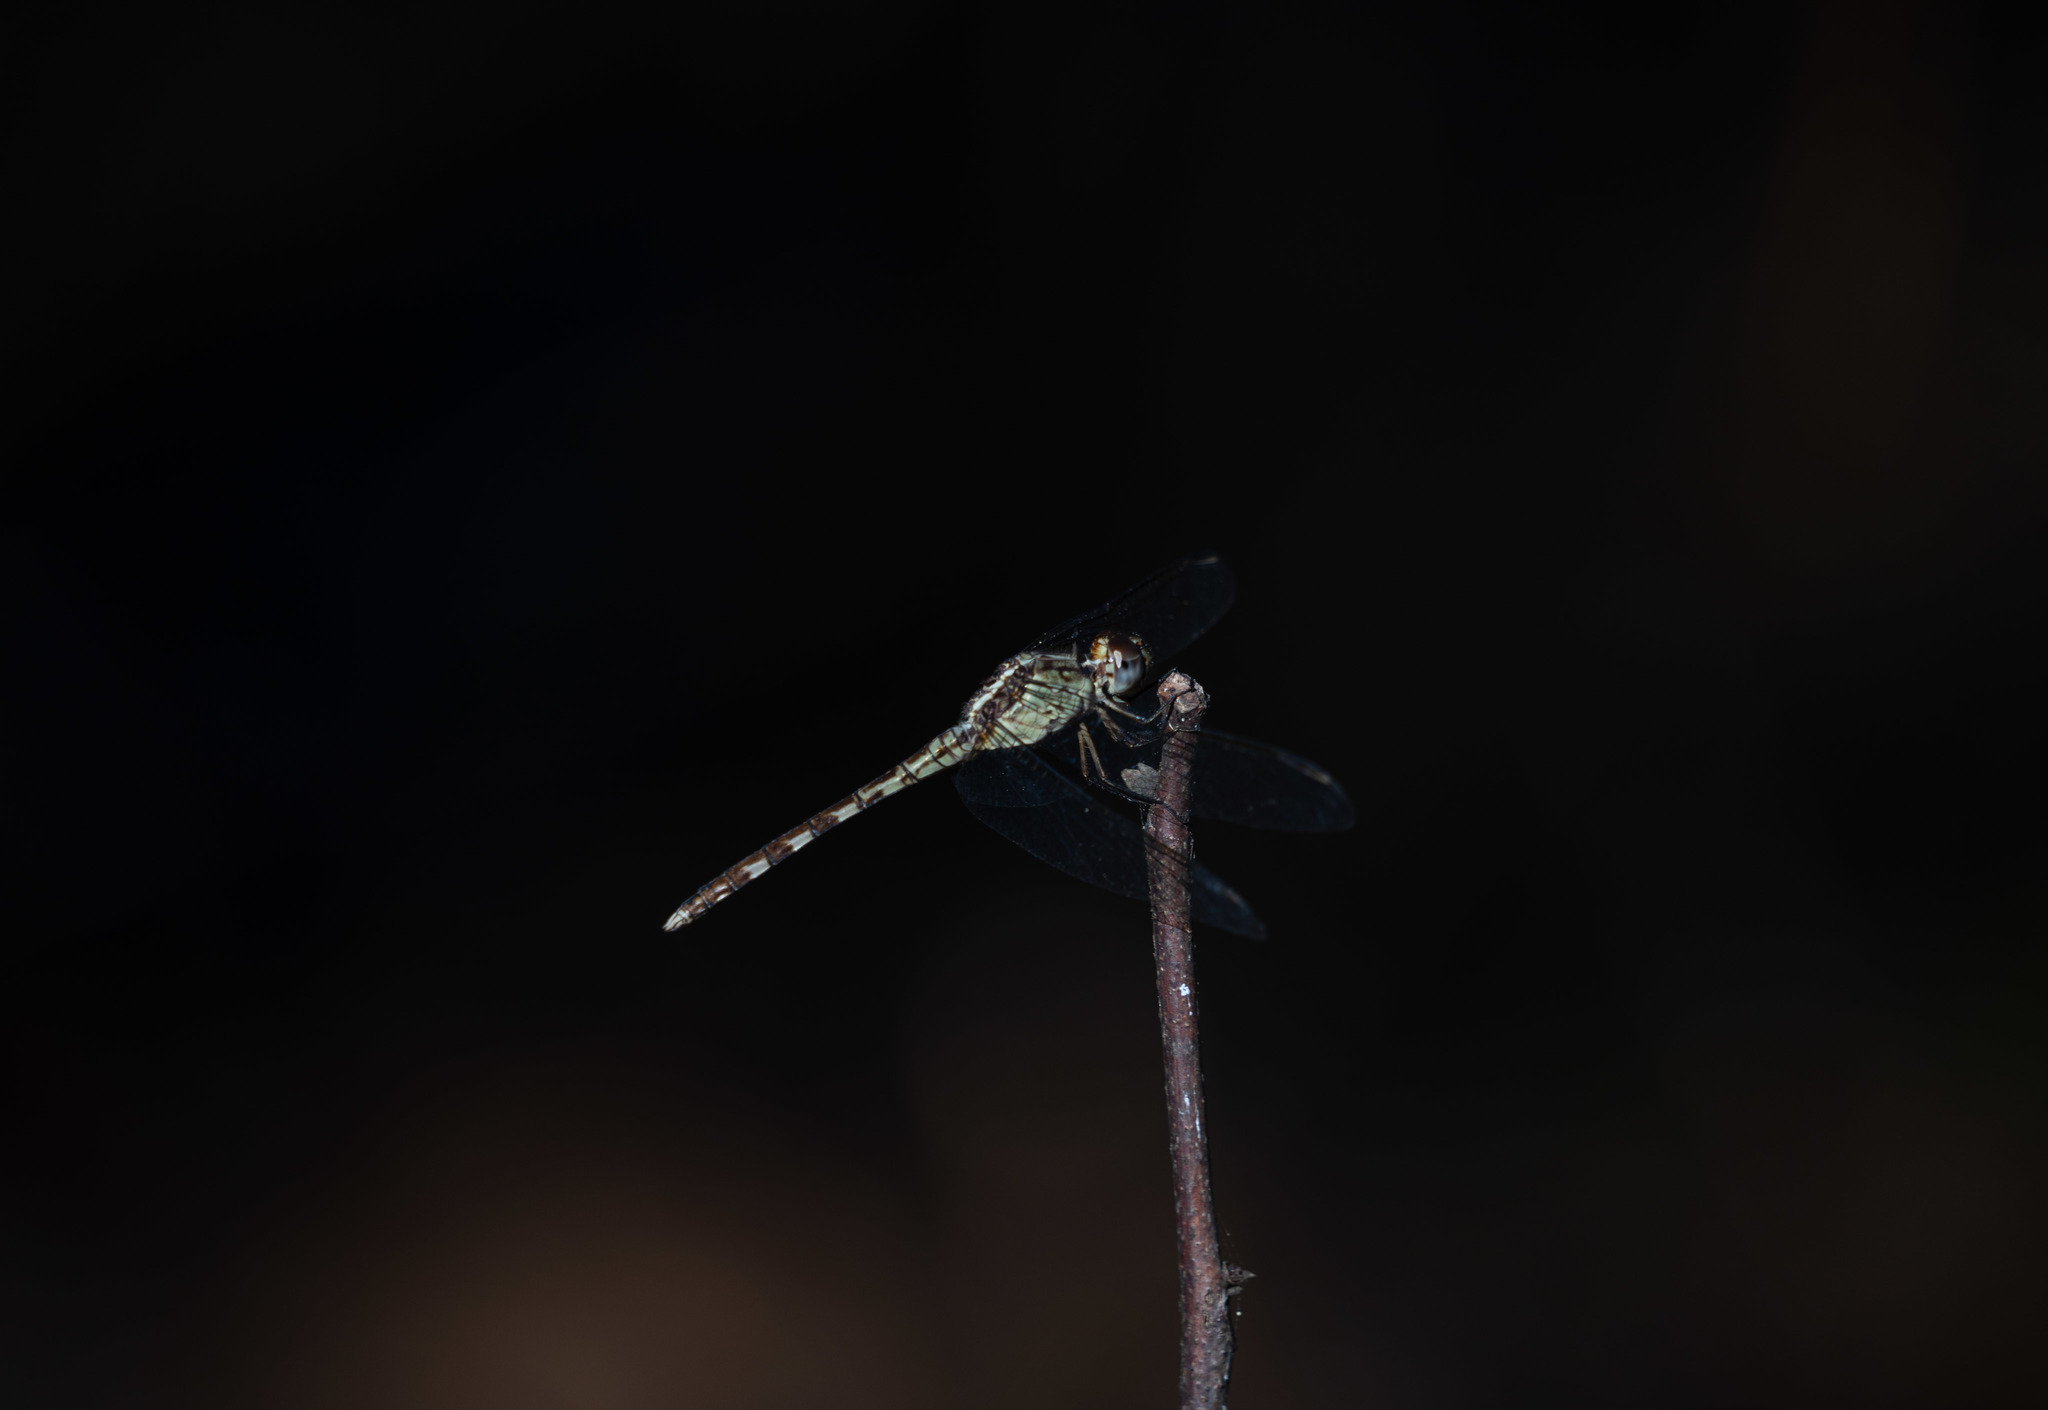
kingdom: Animalia
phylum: Arthropoda
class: Insecta
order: Odonata
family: Libellulidae
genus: Erythrodiplax
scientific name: Erythrodiplax umbrata
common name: Band-winged dragonlet
